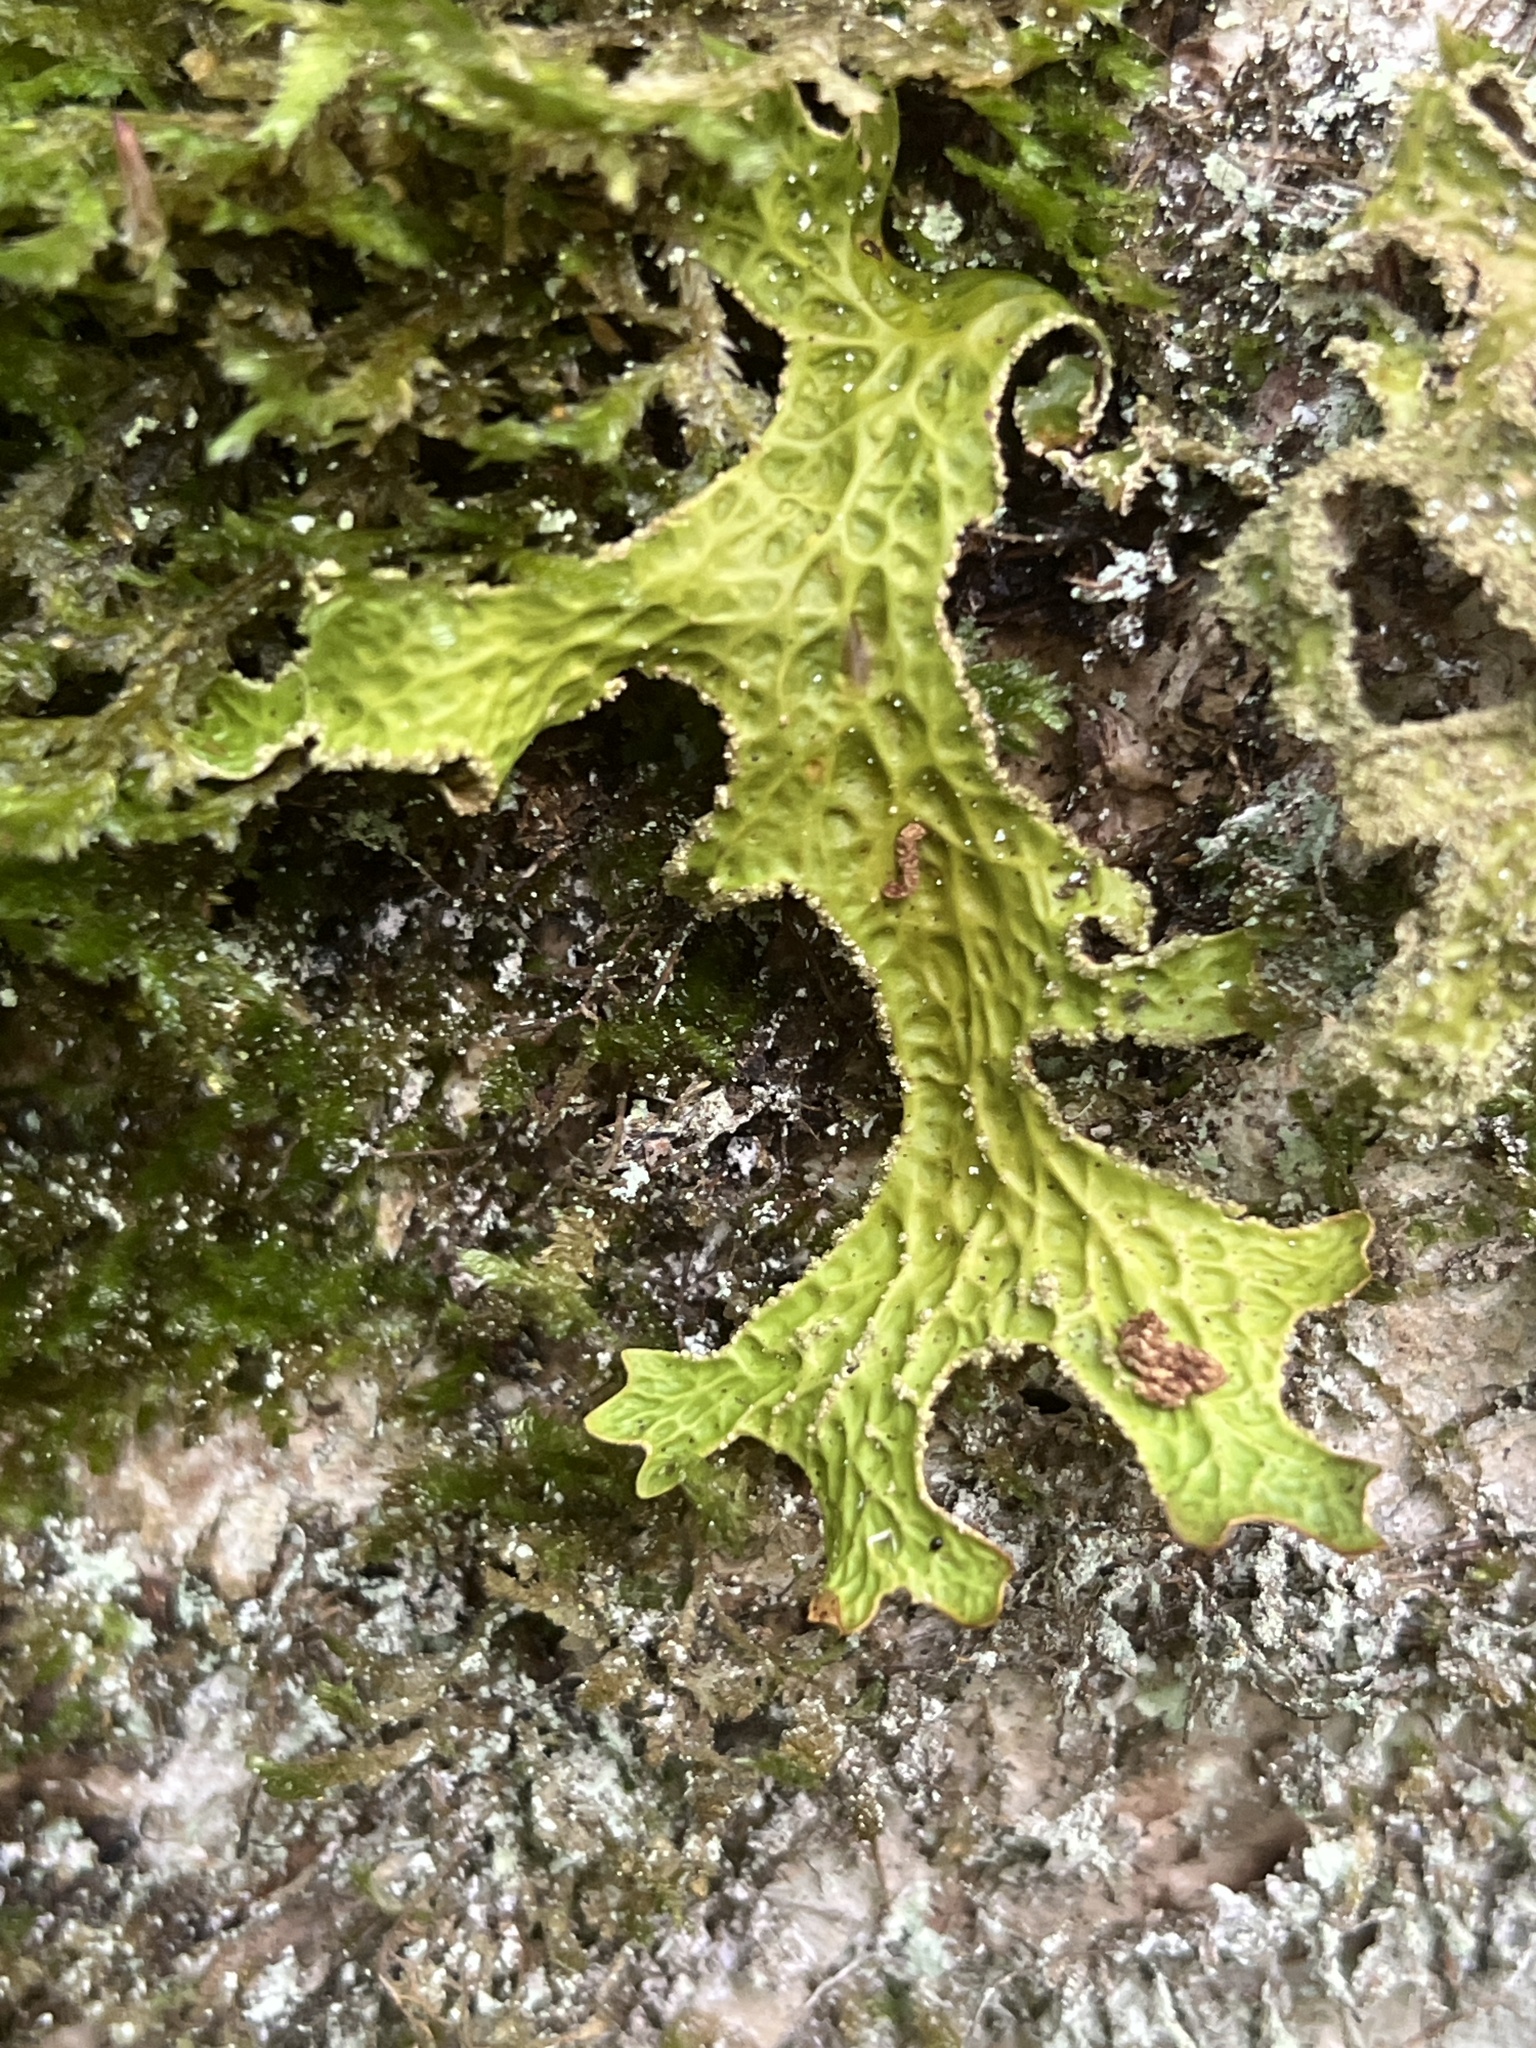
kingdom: Fungi
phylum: Ascomycota
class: Lecanoromycetes
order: Peltigerales
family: Lobariaceae
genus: Lobaria
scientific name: Lobaria pulmonaria
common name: Lungwort
